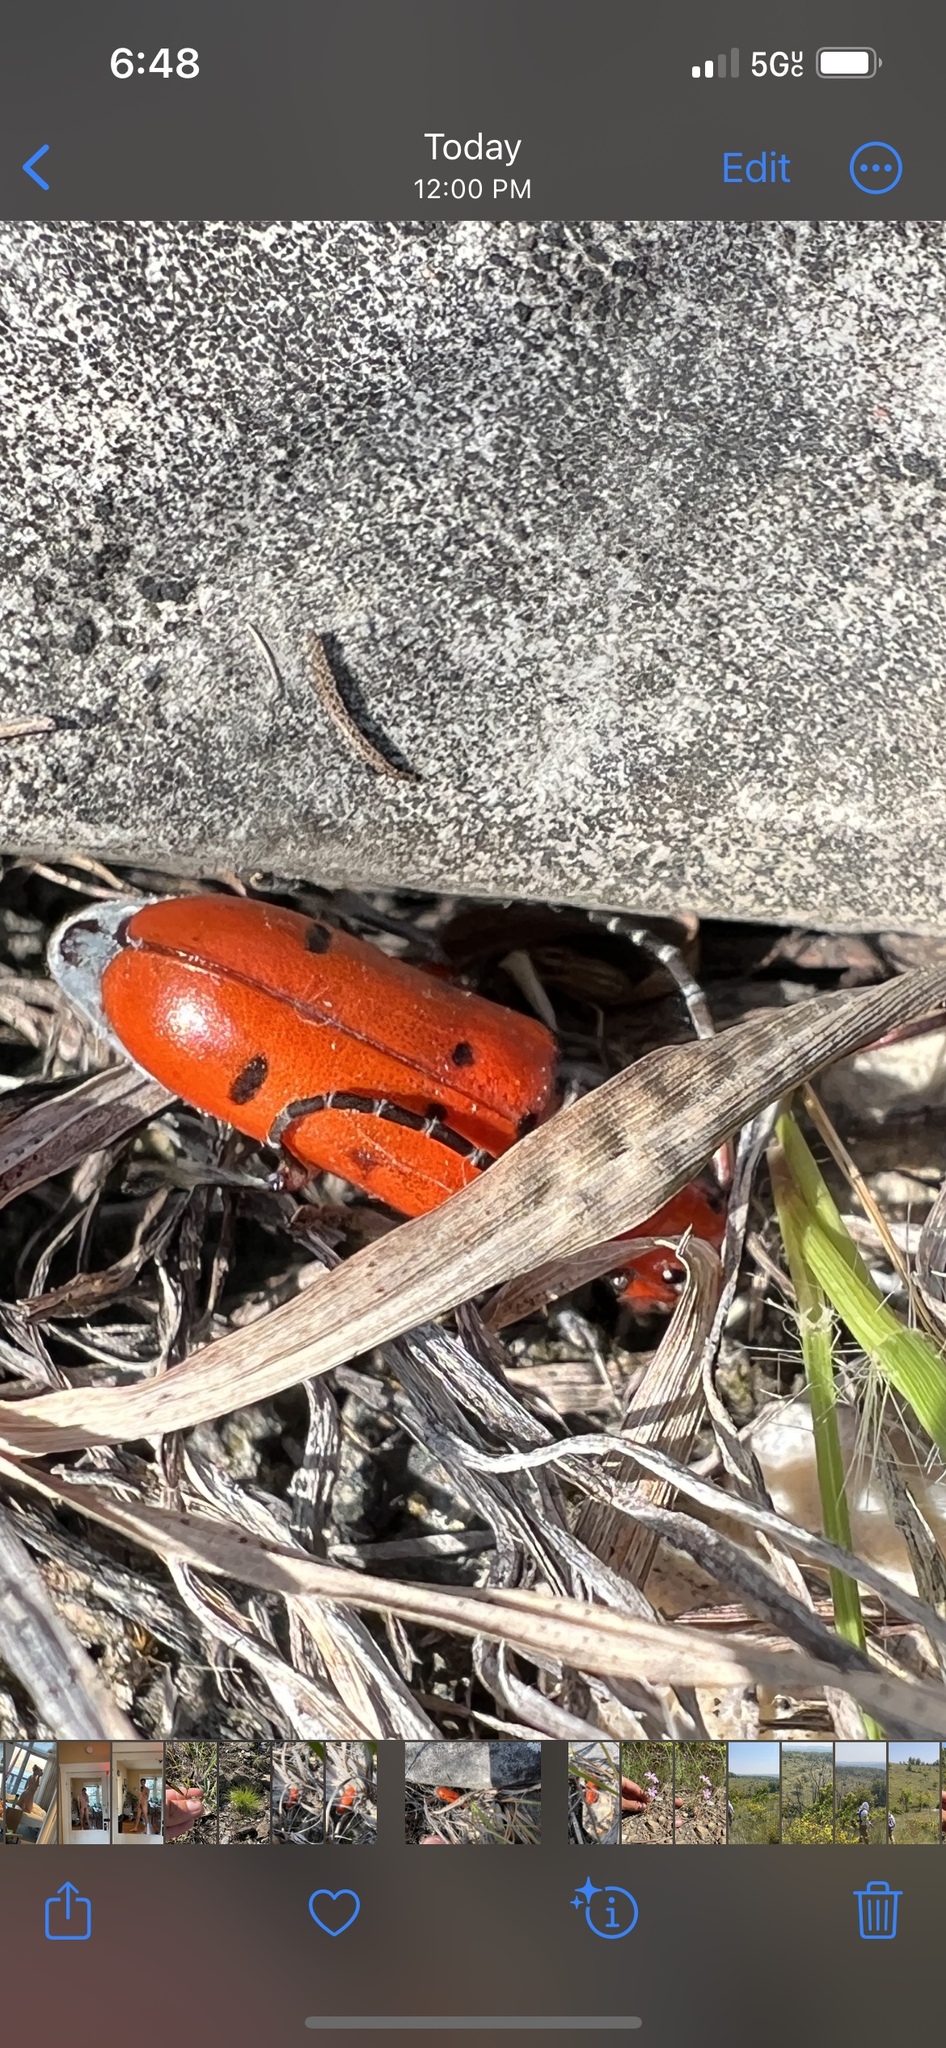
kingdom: Animalia
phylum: Arthropoda
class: Insecta
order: Coleoptera
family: Cerambycidae
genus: Tetraopes
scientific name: Tetraopes femoratus
